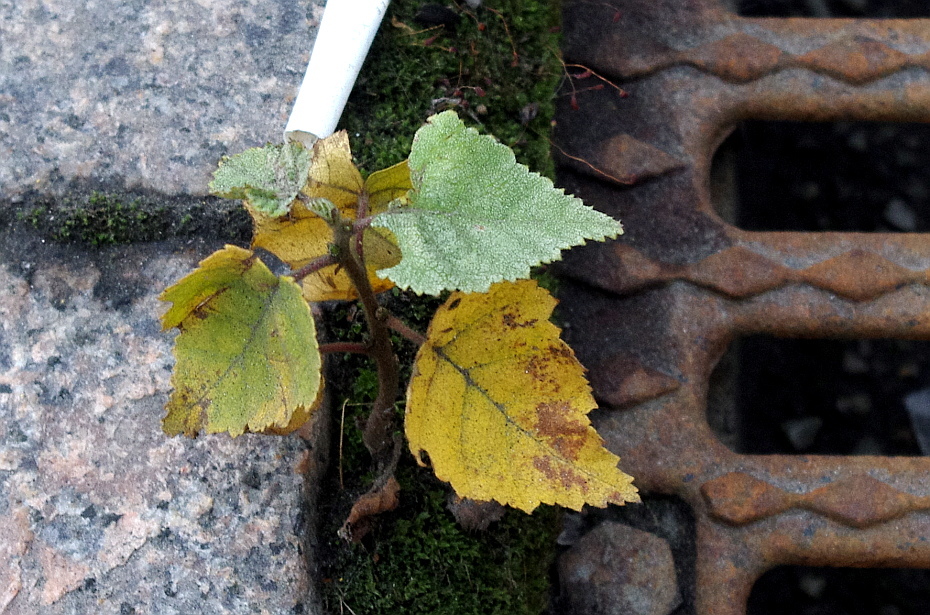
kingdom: Plantae
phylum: Tracheophyta
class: Magnoliopsida
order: Fagales
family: Betulaceae
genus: Betula
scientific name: Betula pubescens
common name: Downy birch
